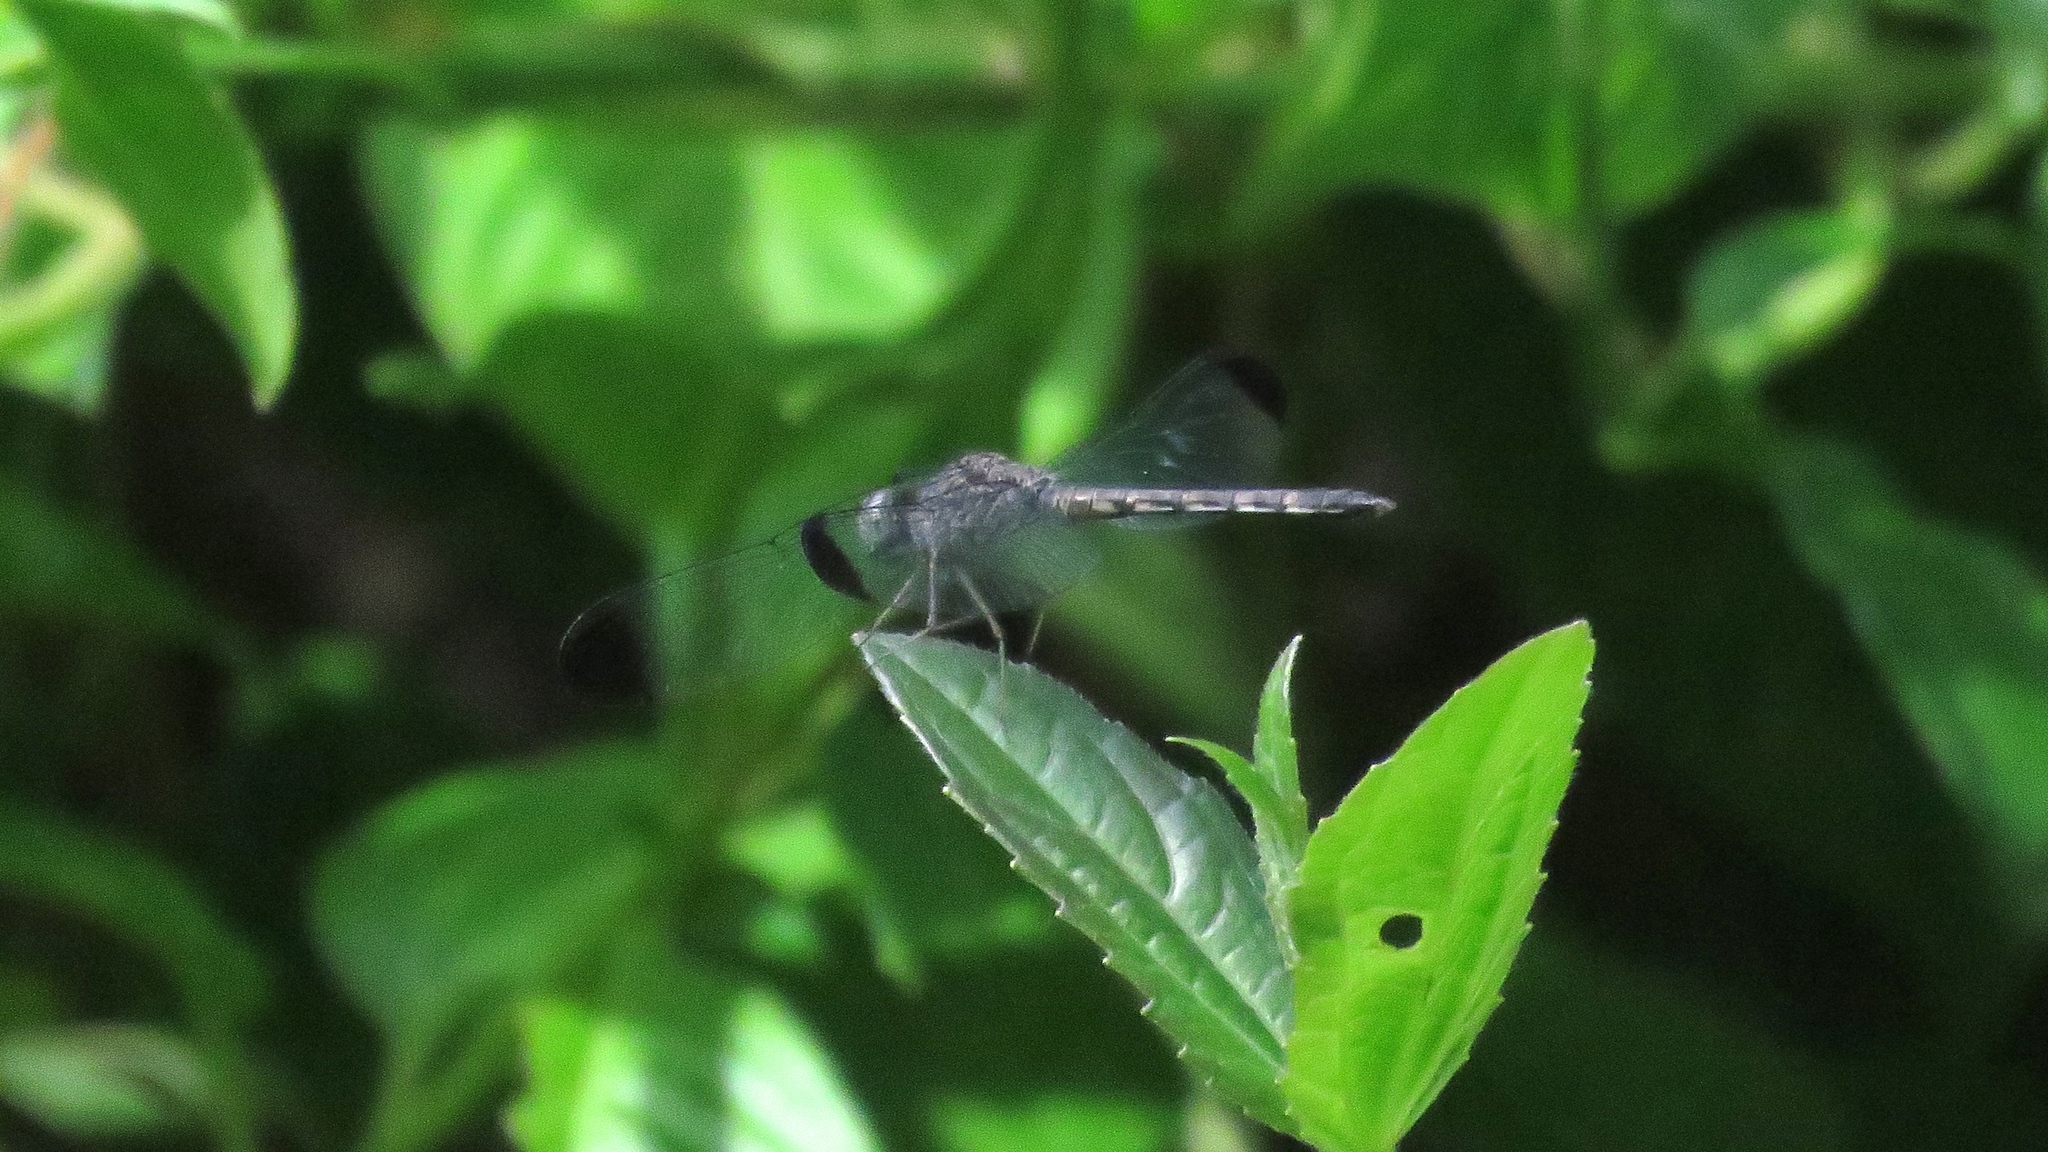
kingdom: Animalia
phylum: Arthropoda
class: Insecta
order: Odonata
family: Libellulidae
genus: Uracis
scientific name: Uracis imbuta
